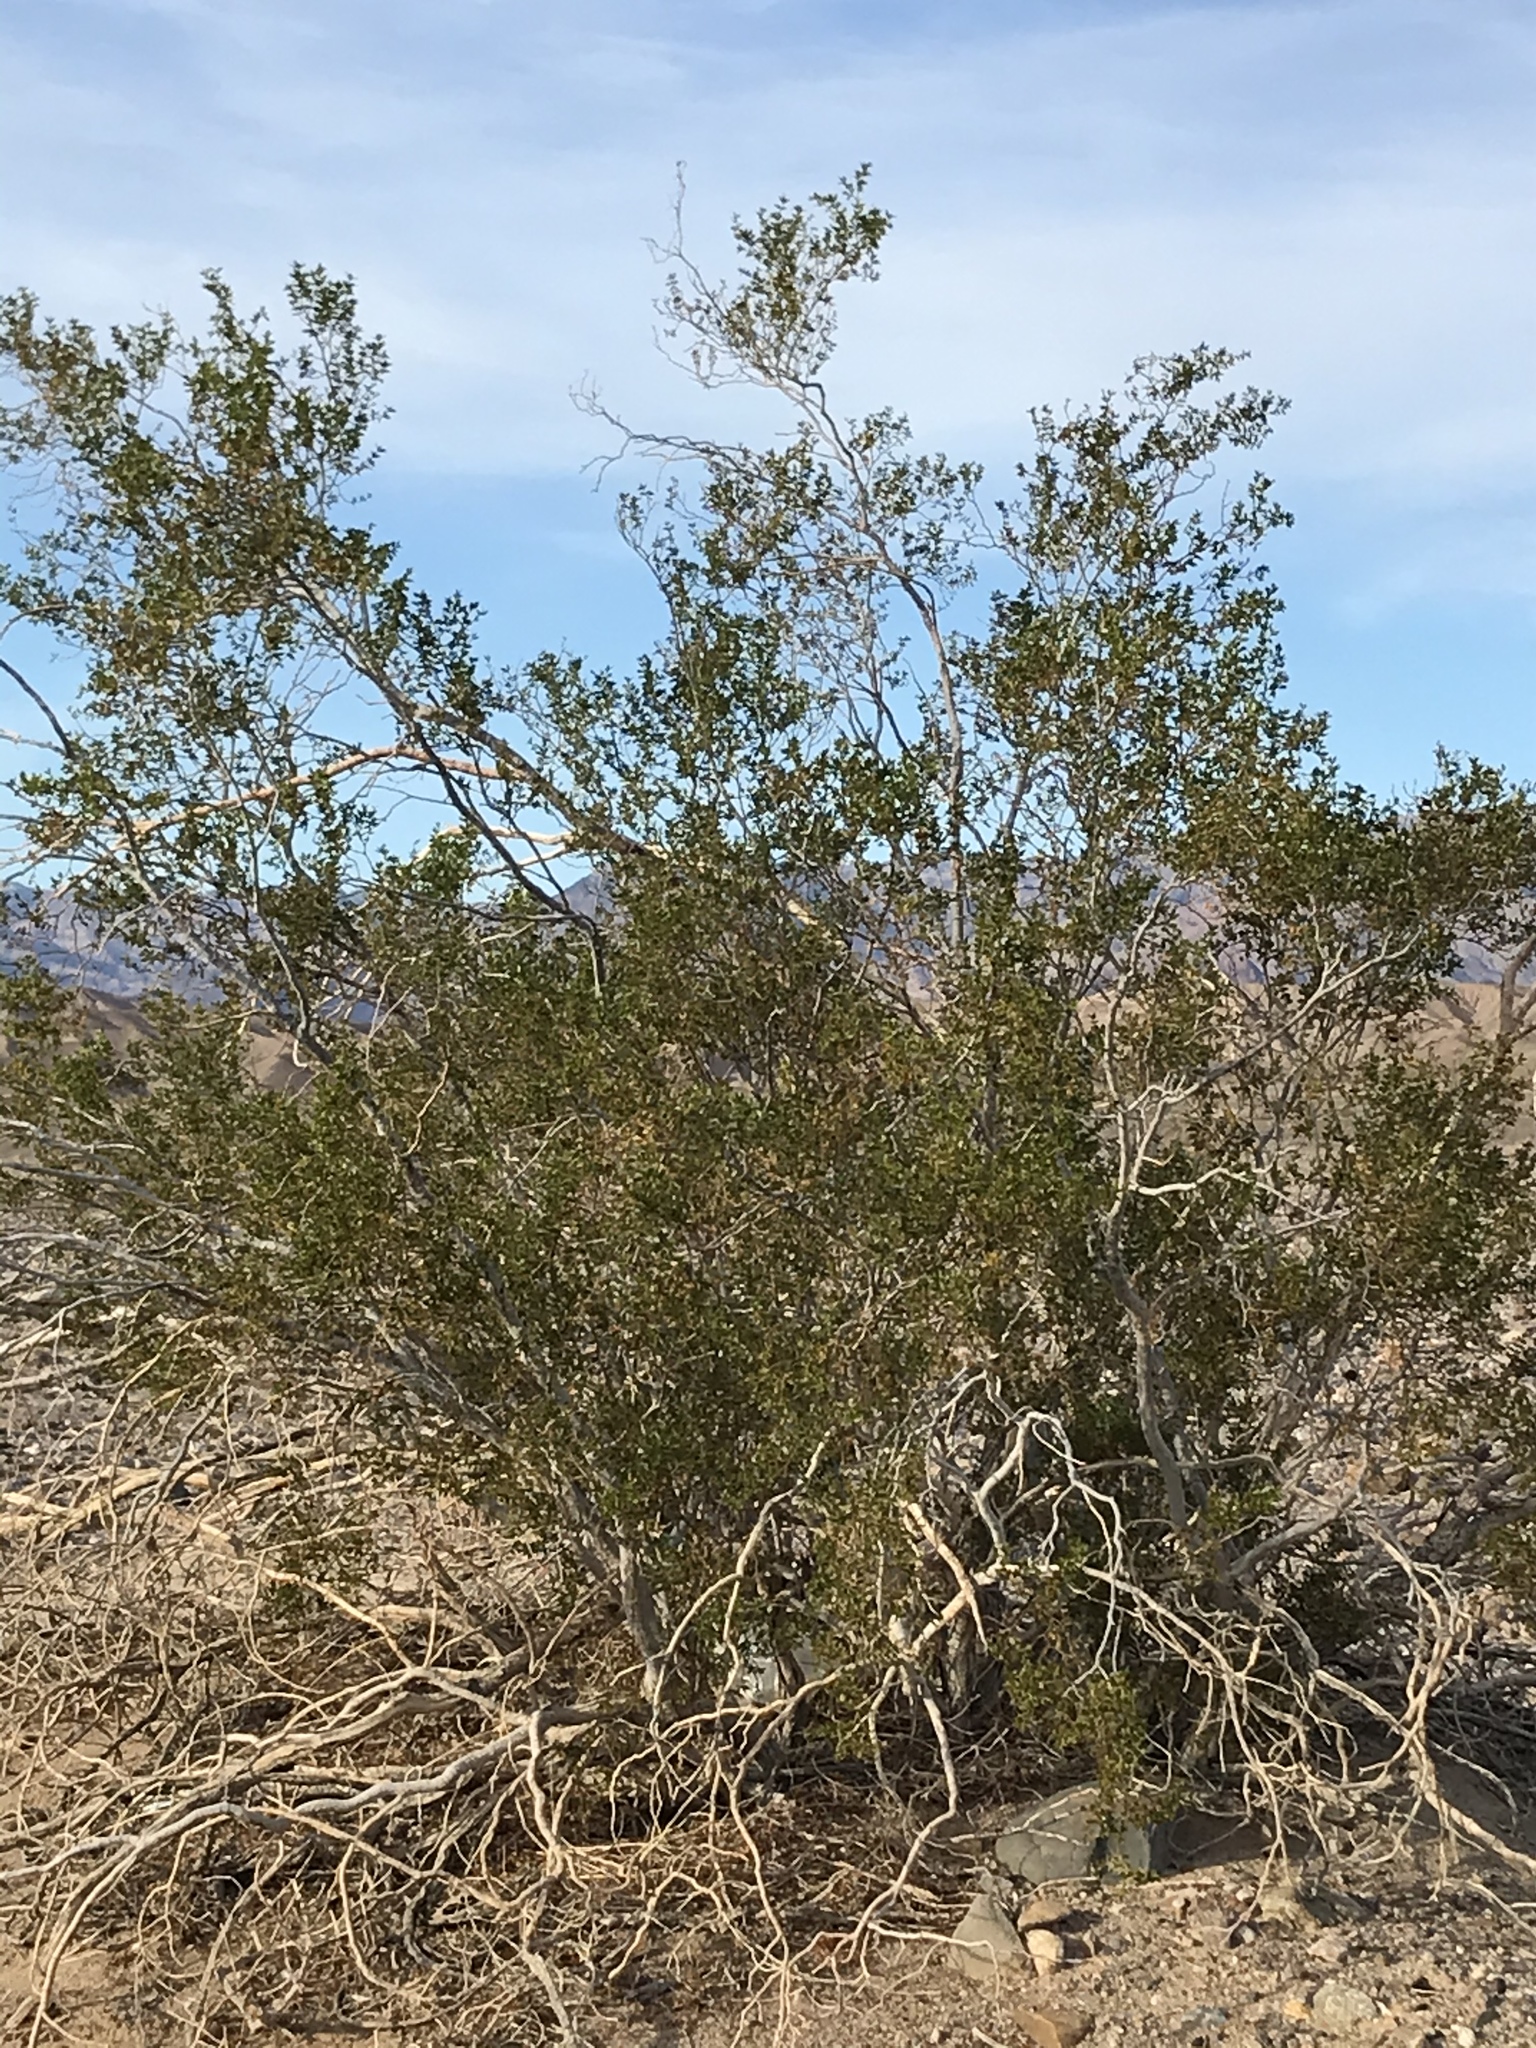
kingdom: Plantae
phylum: Tracheophyta
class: Magnoliopsida
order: Zygophyllales
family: Zygophyllaceae
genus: Larrea
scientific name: Larrea tridentata
